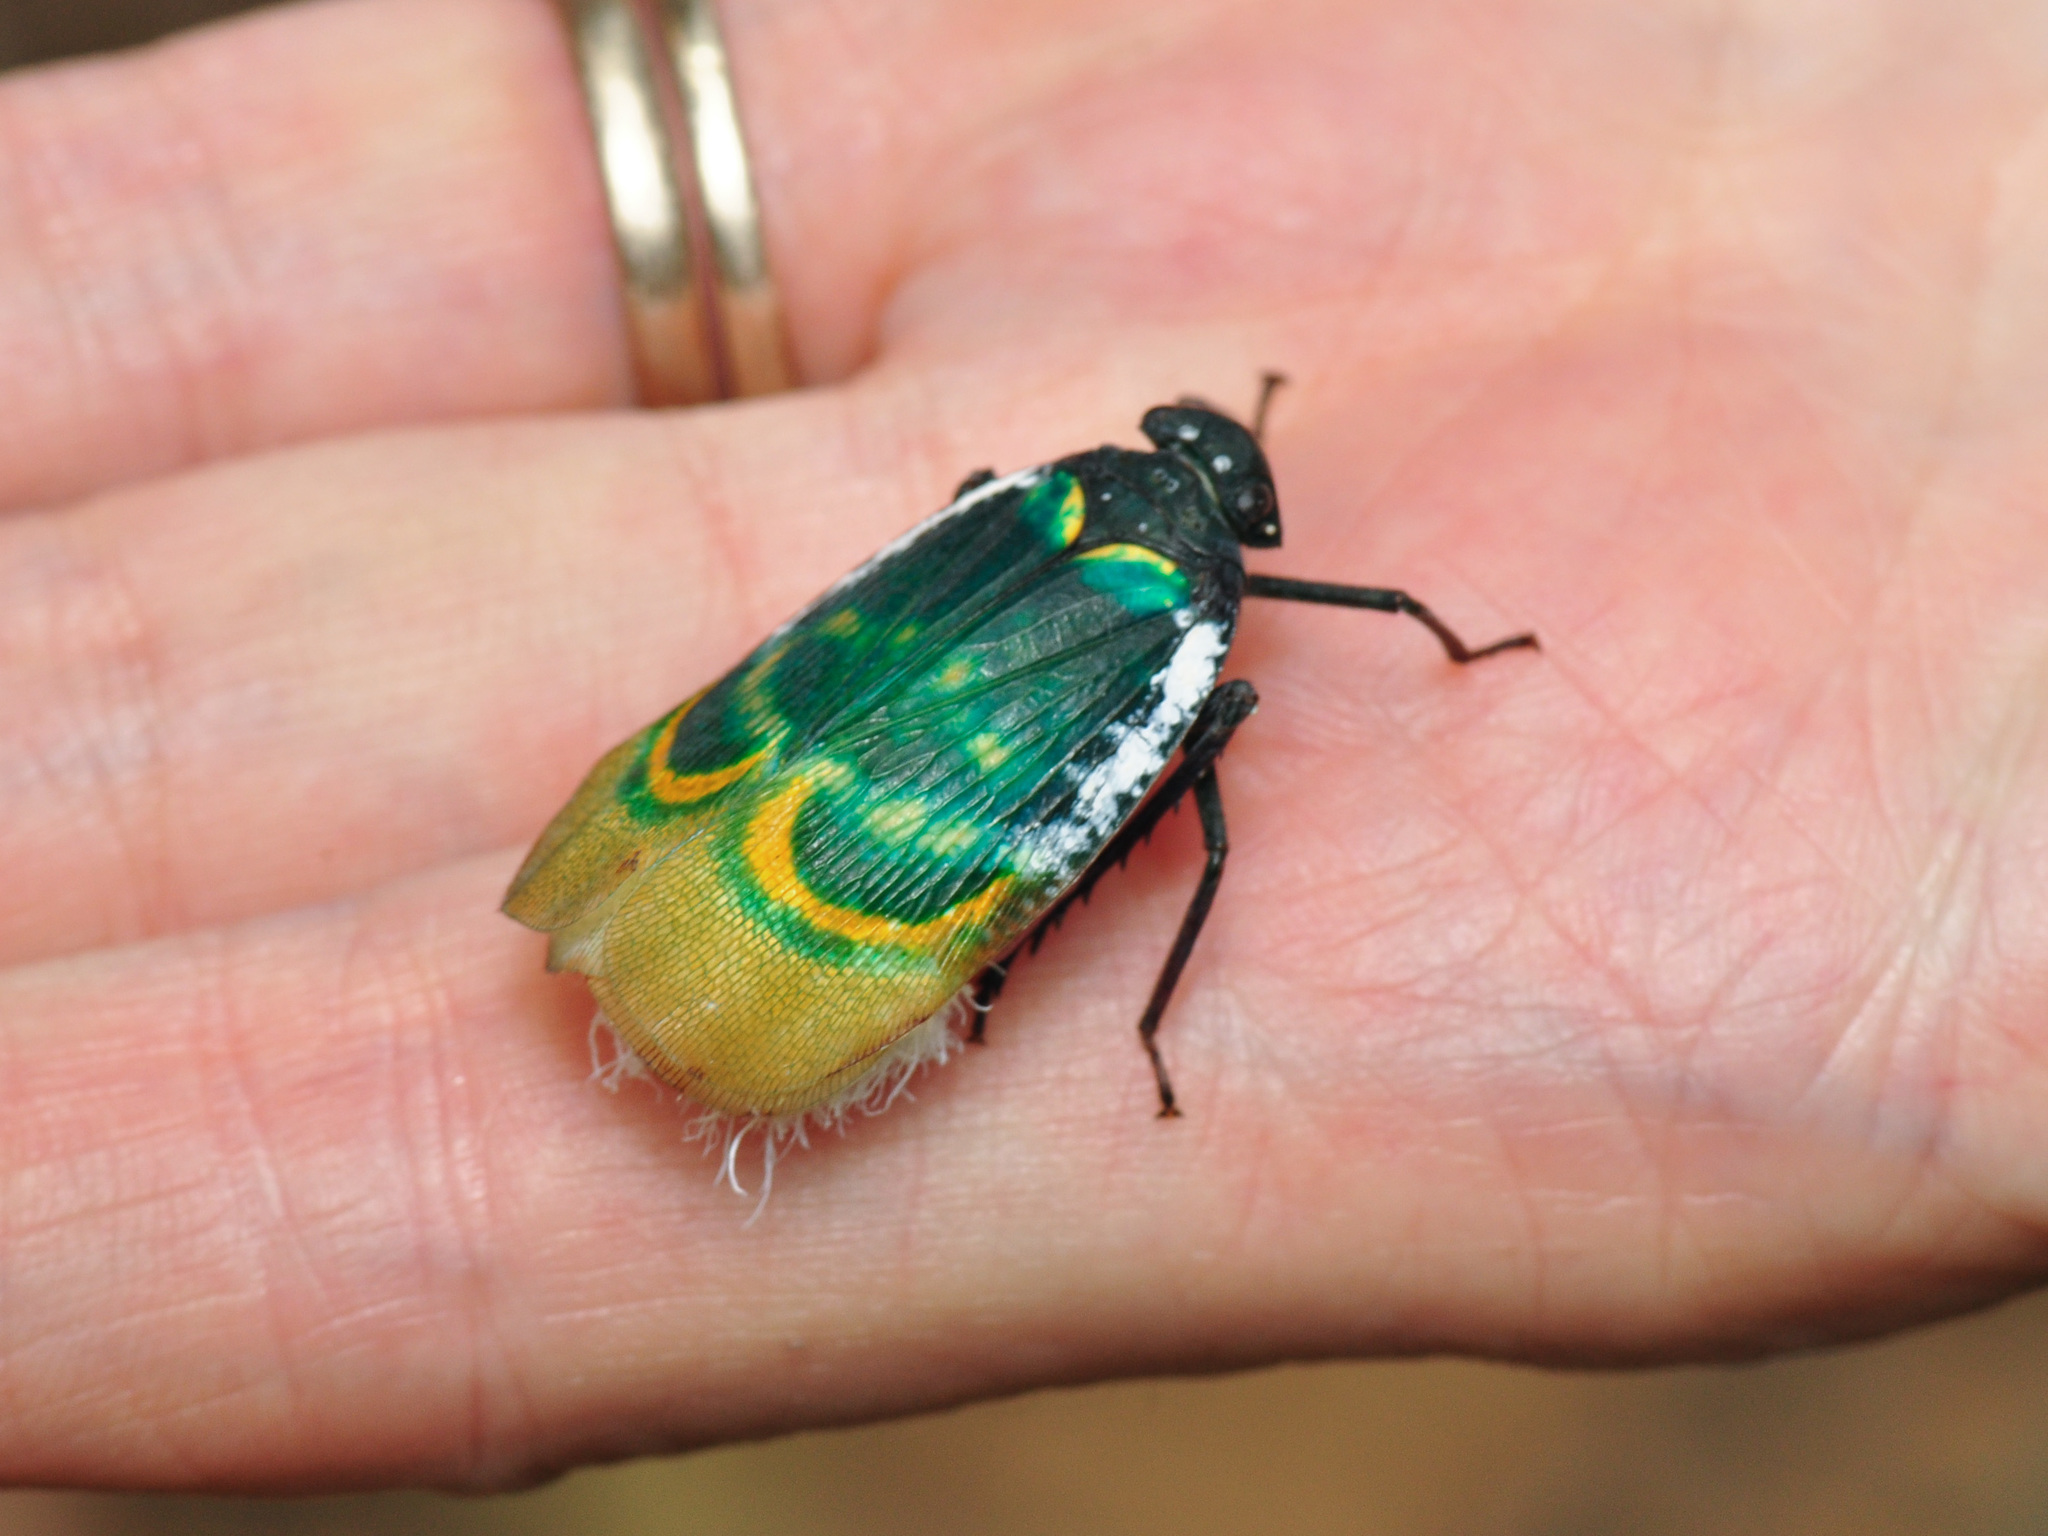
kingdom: Animalia
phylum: Arthropoda
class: Insecta
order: Hemiptera
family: Eurybrachidae
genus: Chalia
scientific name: Chalia pulchra
